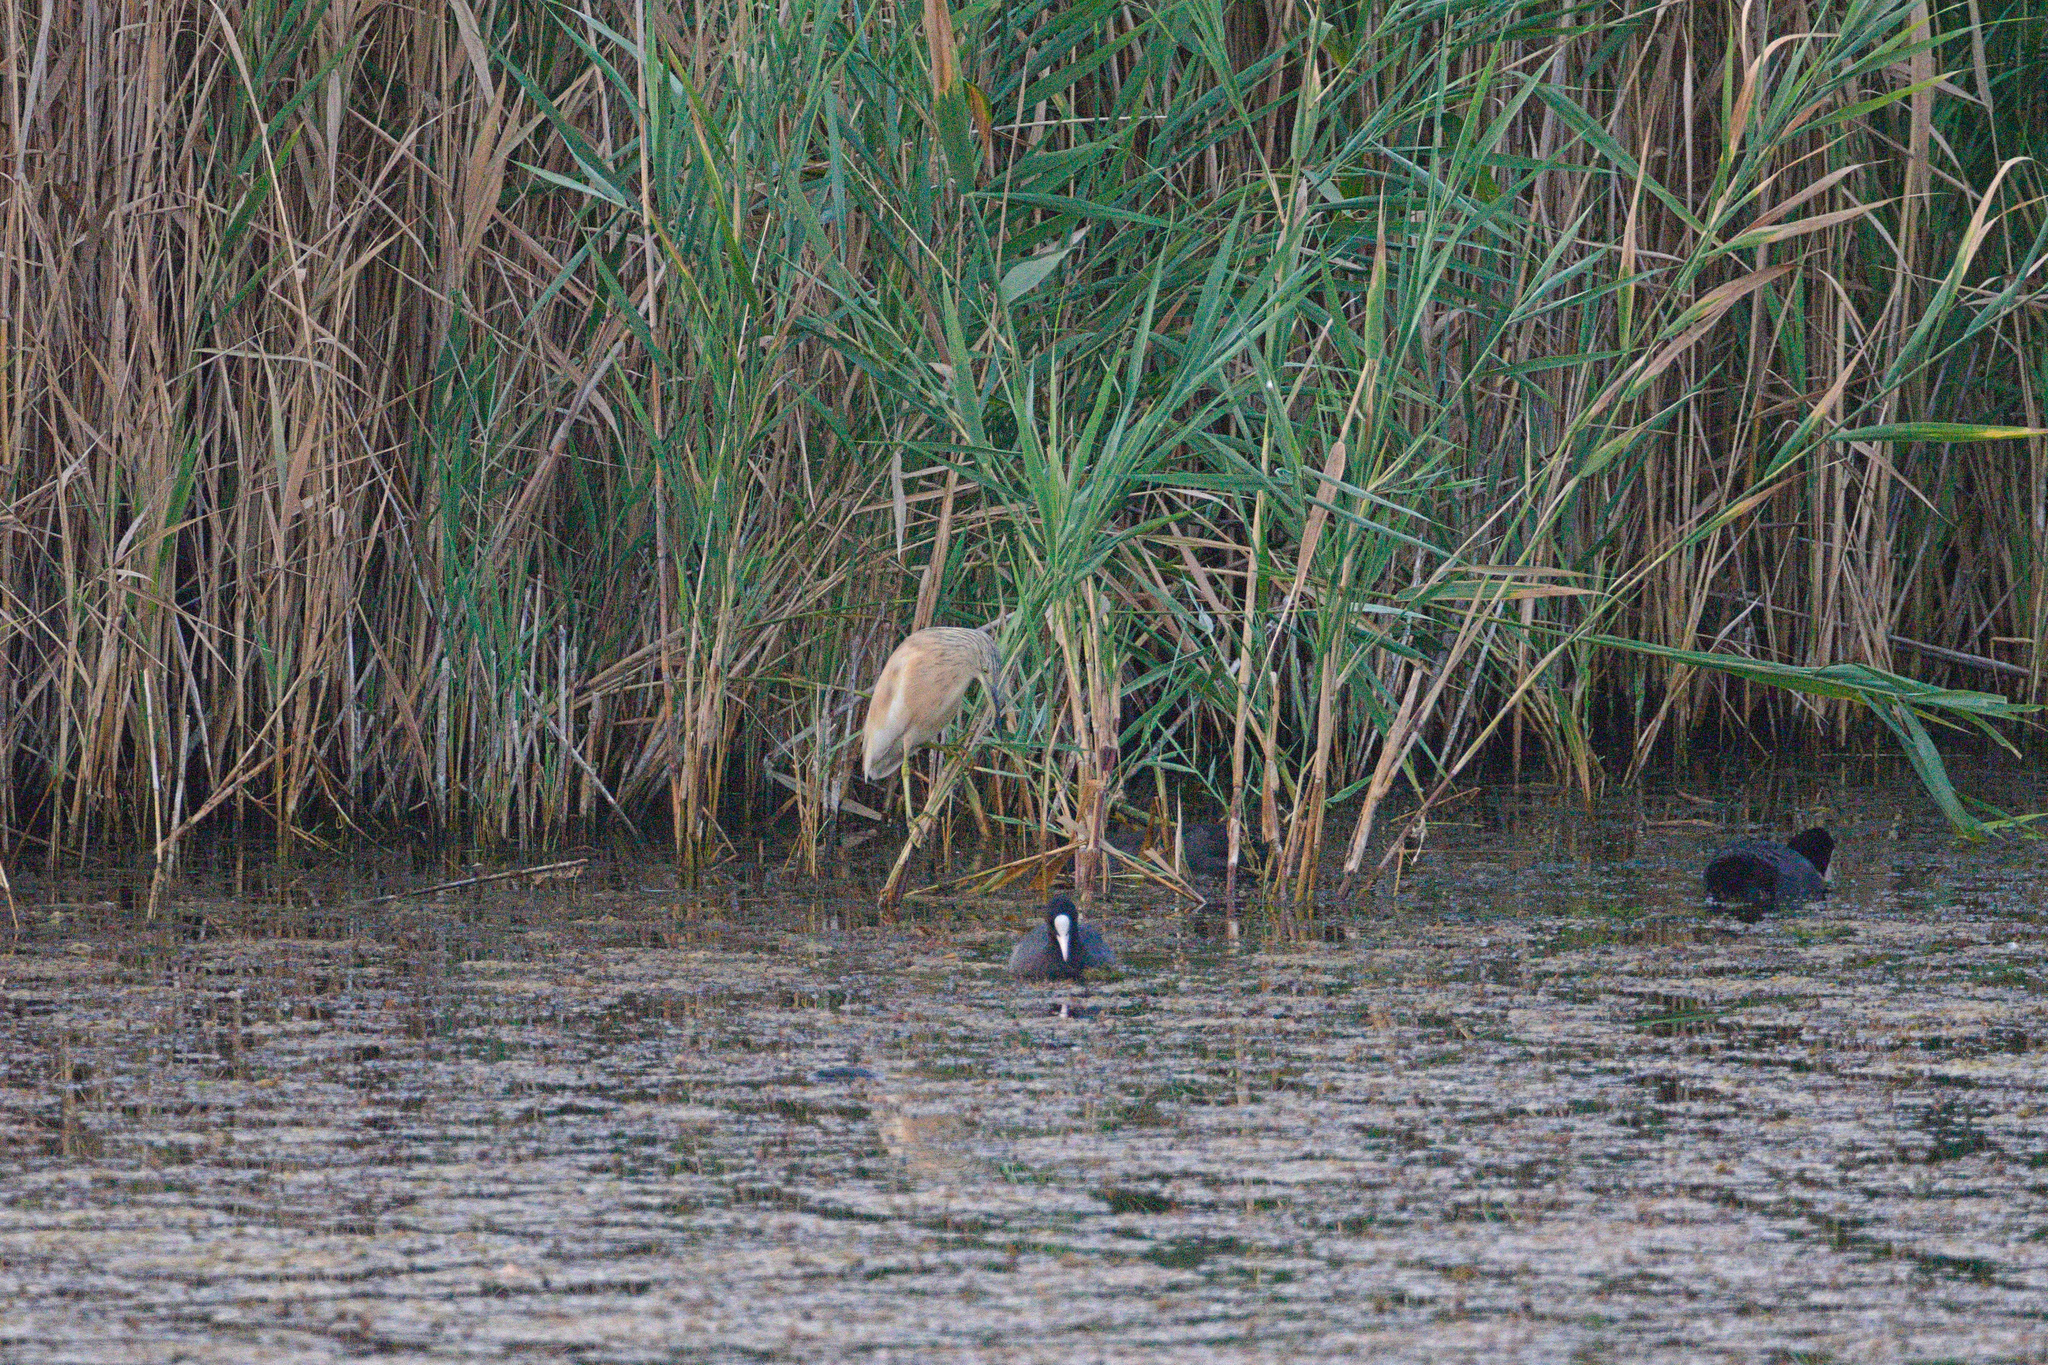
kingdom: Animalia
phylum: Chordata
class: Aves
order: Pelecaniformes
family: Ardeidae
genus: Ardeola
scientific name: Ardeola ralloides
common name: Squacco heron
